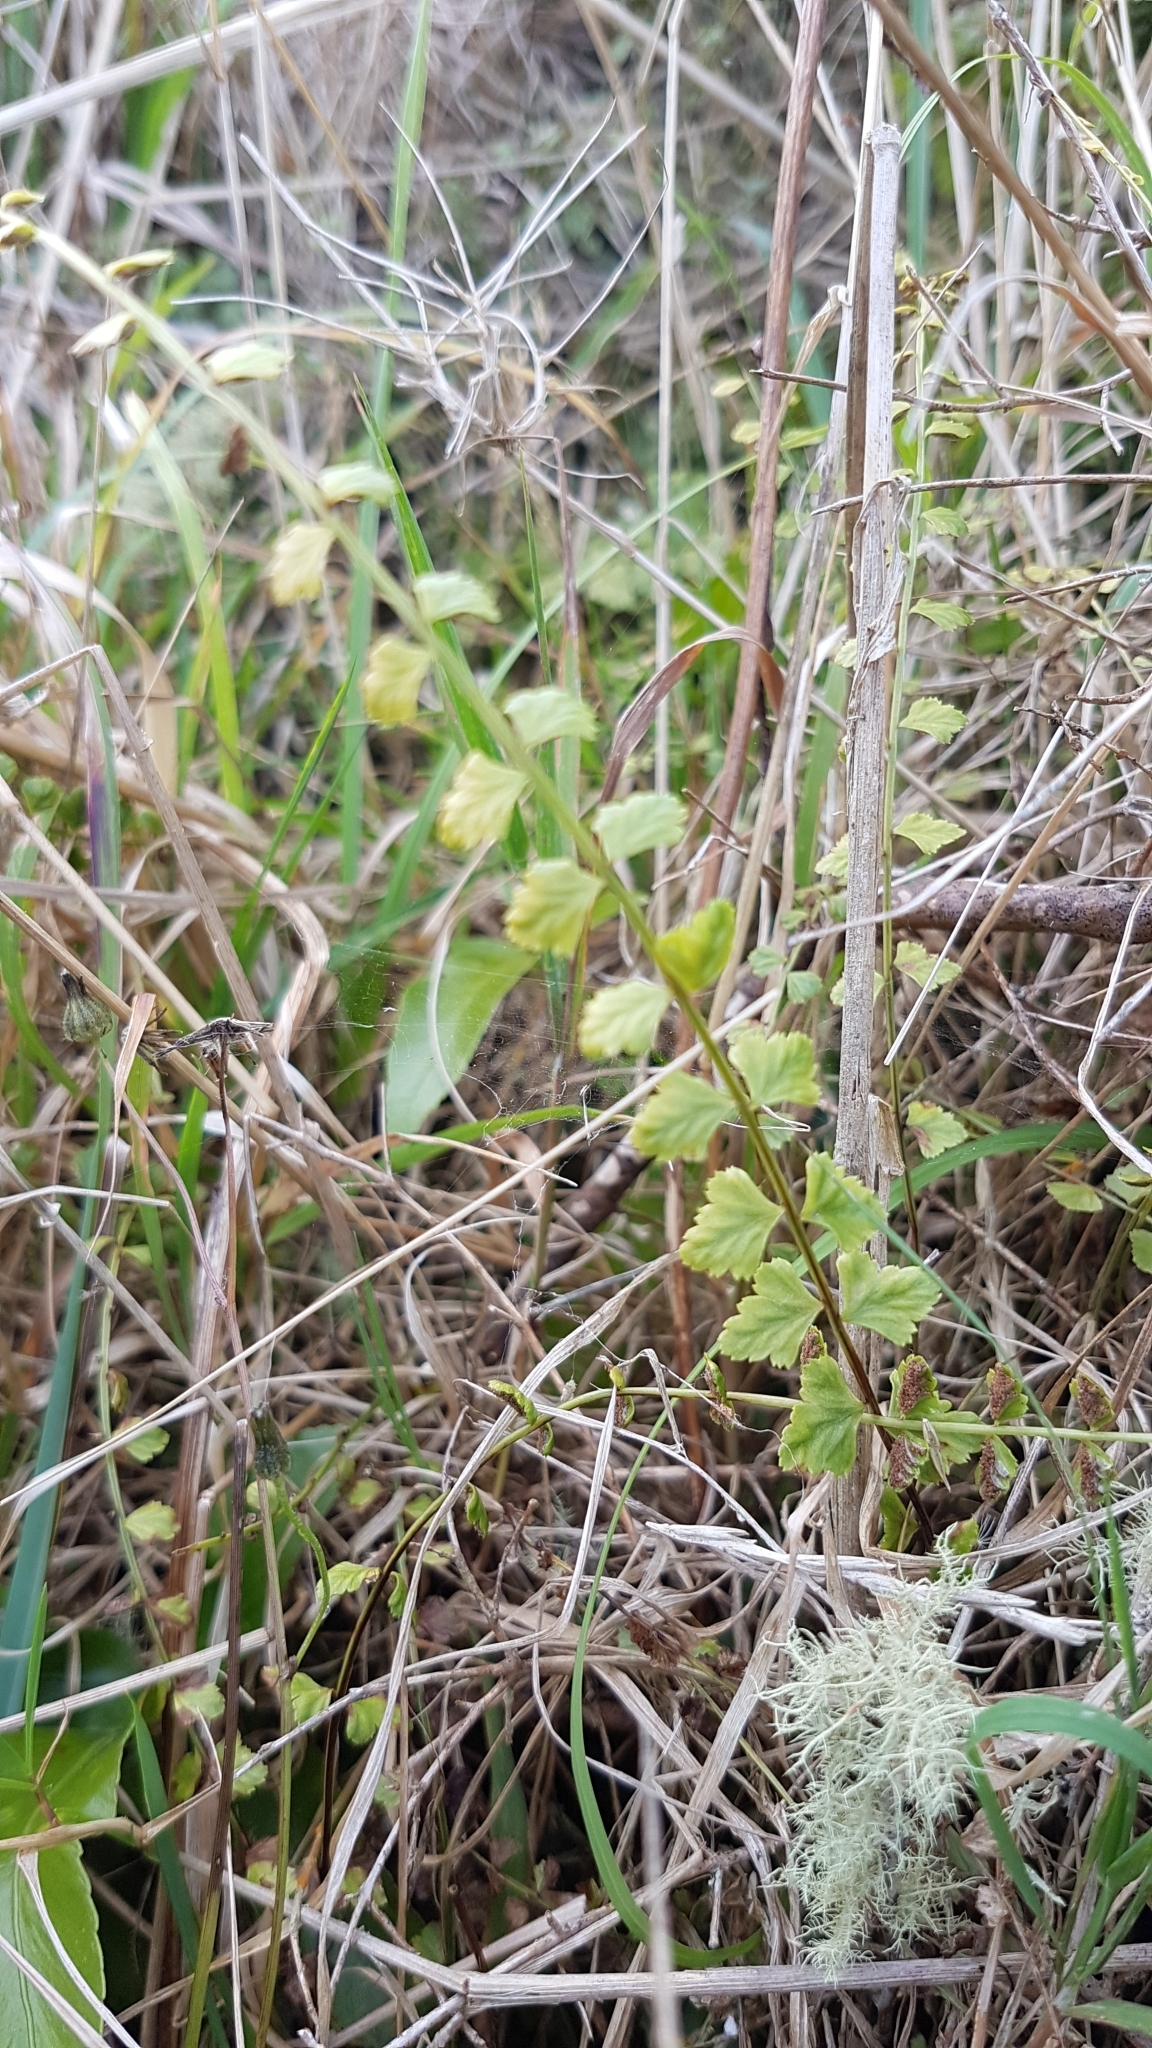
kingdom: Plantae
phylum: Tracheophyta
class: Polypodiopsida
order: Polypodiales
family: Aspleniaceae
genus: Asplenium
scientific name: Asplenium flabellifolium
